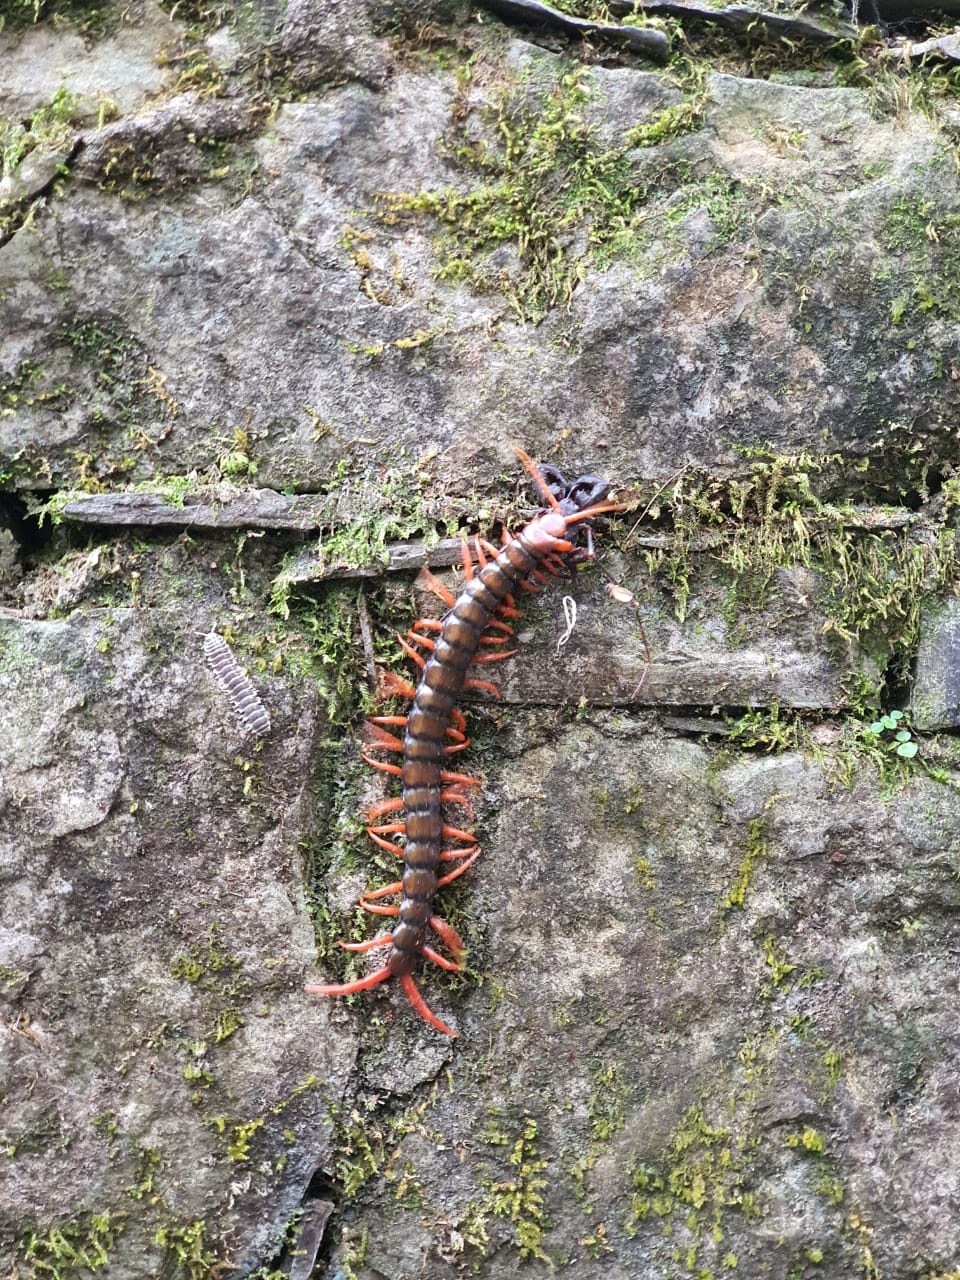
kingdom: Animalia
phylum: Arthropoda
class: Chilopoda
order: Scolopendromorpha
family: Scolopendridae
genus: Scolopendra
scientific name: Scolopendra sumichrasti
